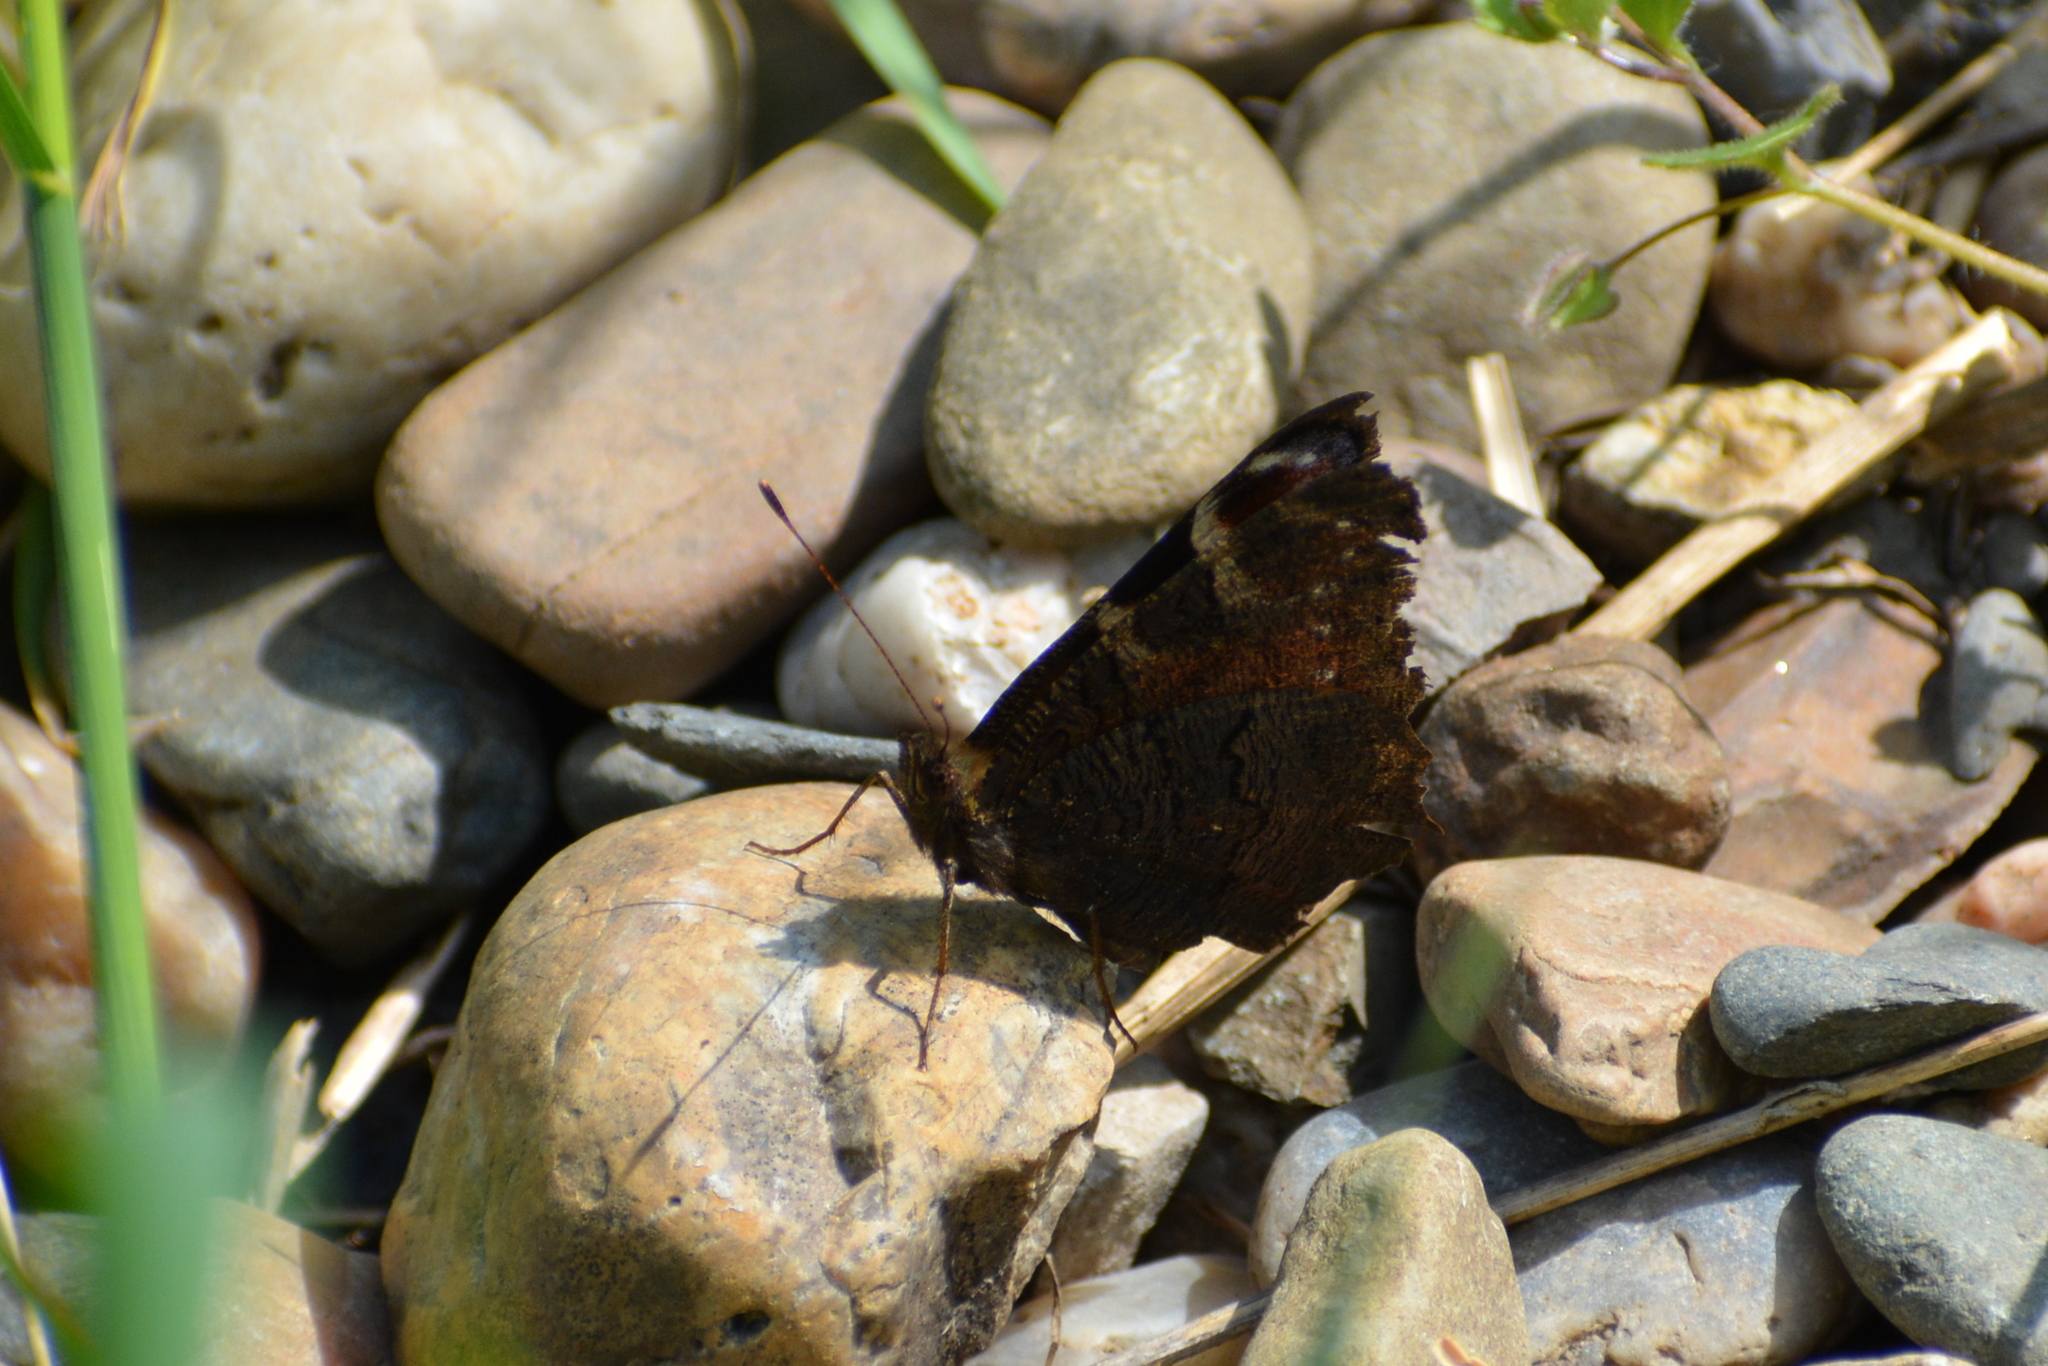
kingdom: Animalia
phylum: Arthropoda
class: Insecta
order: Lepidoptera
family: Nymphalidae
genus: Aglais
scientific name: Aglais io
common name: Peacock
